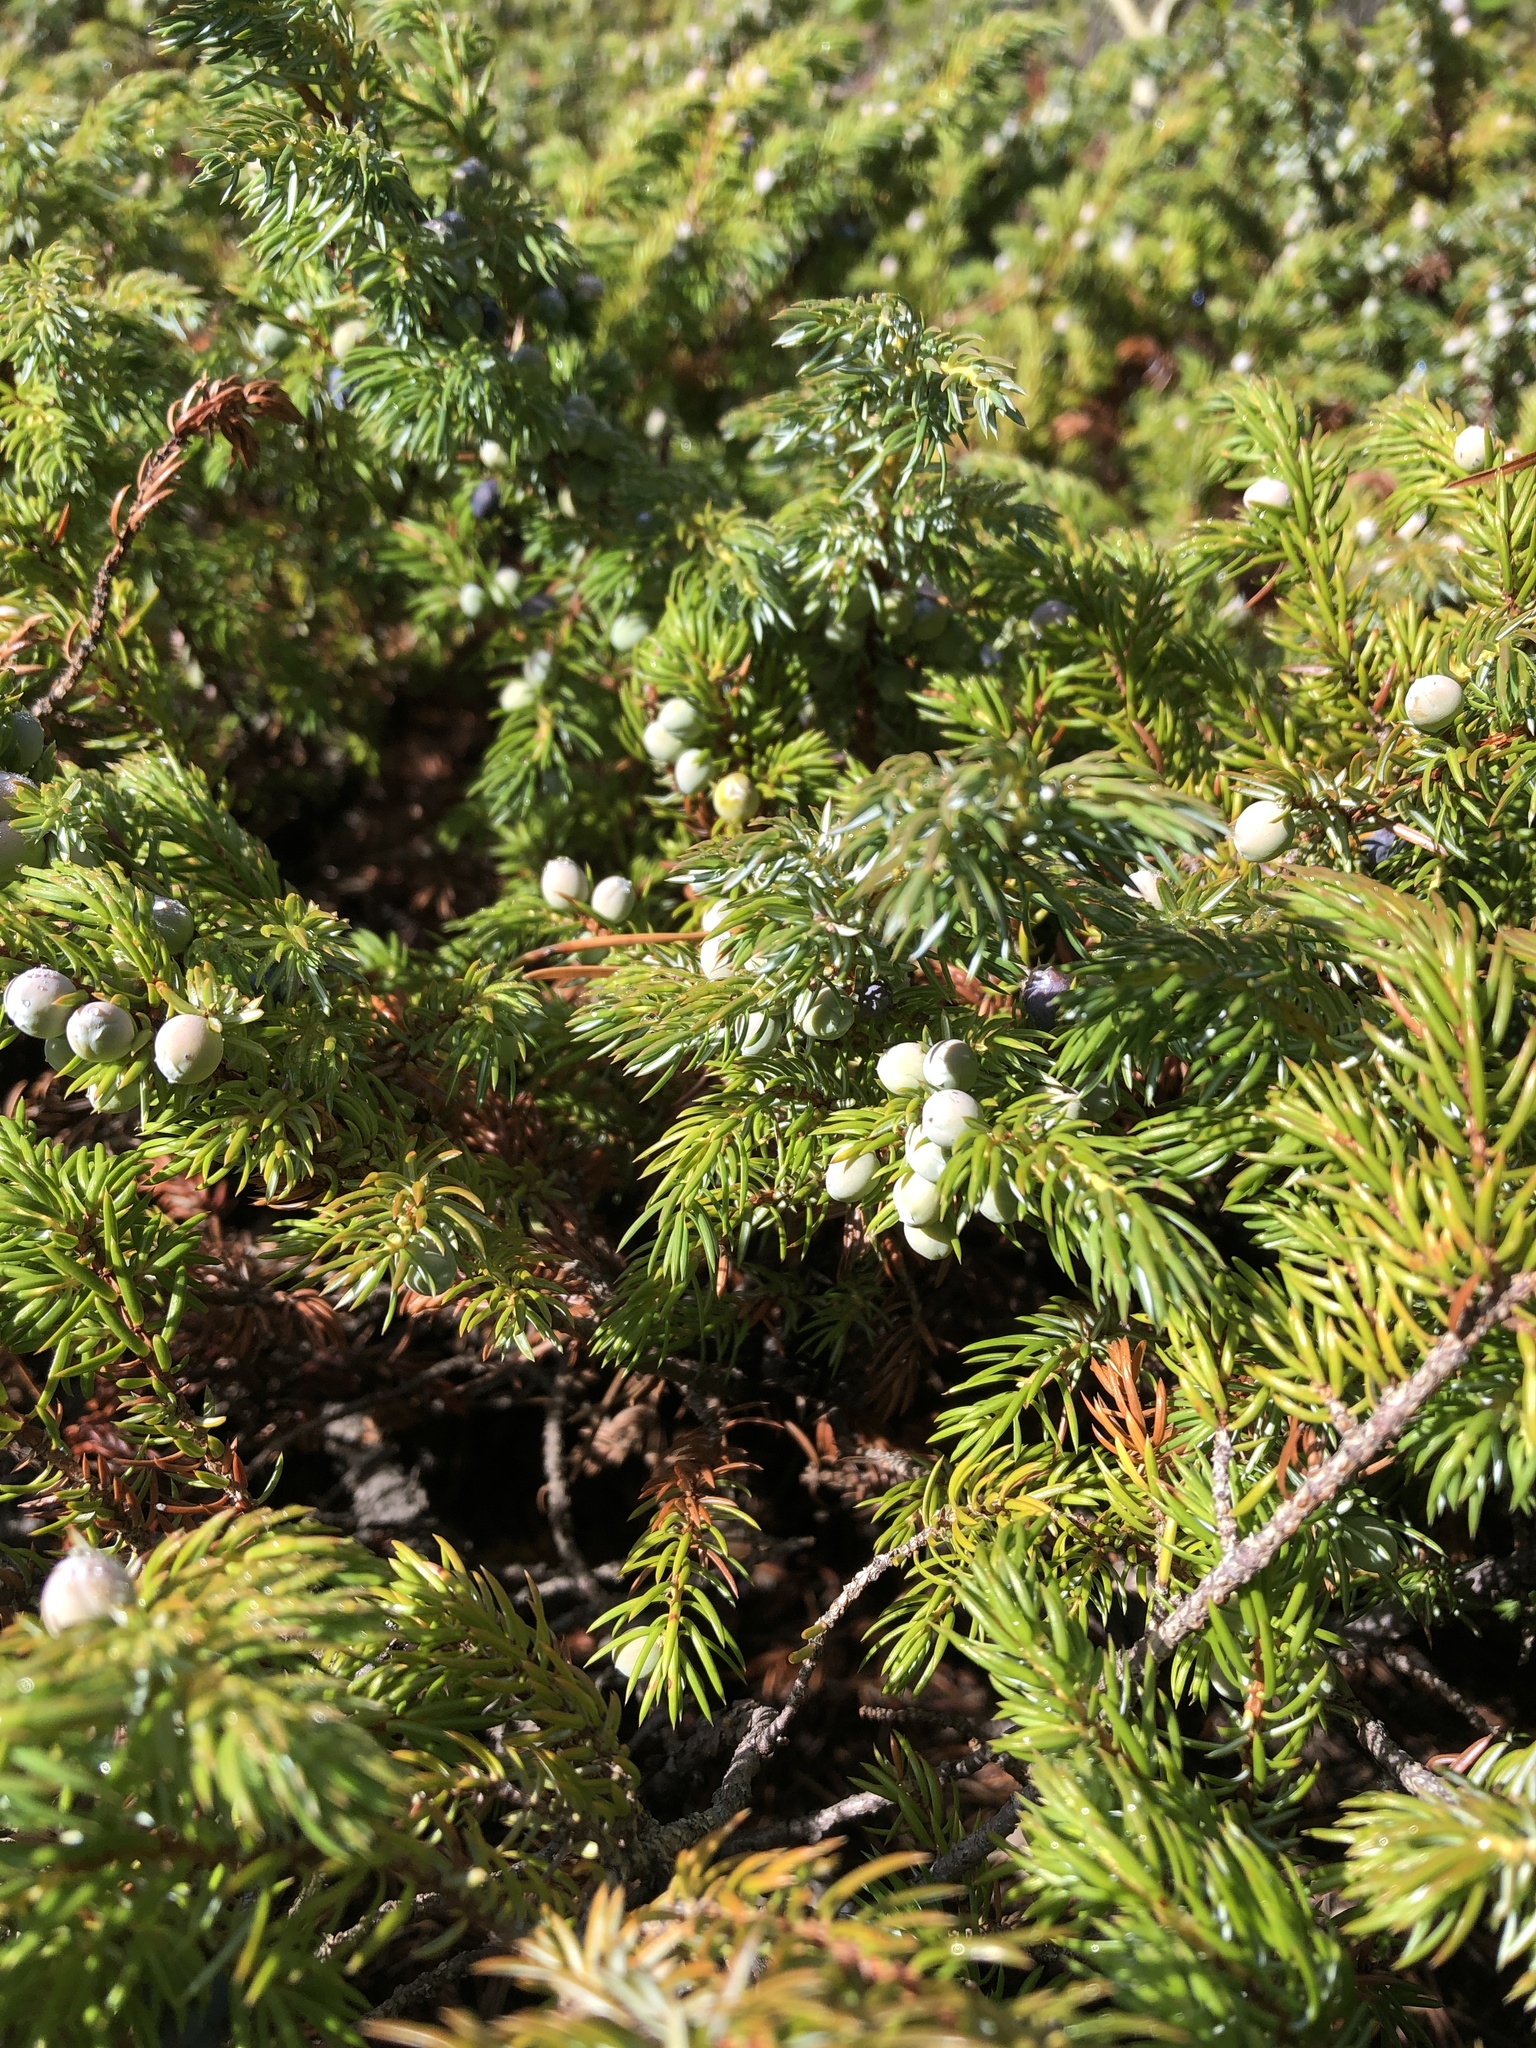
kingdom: Plantae
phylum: Tracheophyta
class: Pinopsida
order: Pinales
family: Cupressaceae
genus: Juniperus
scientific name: Juniperus communis
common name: Common juniper
